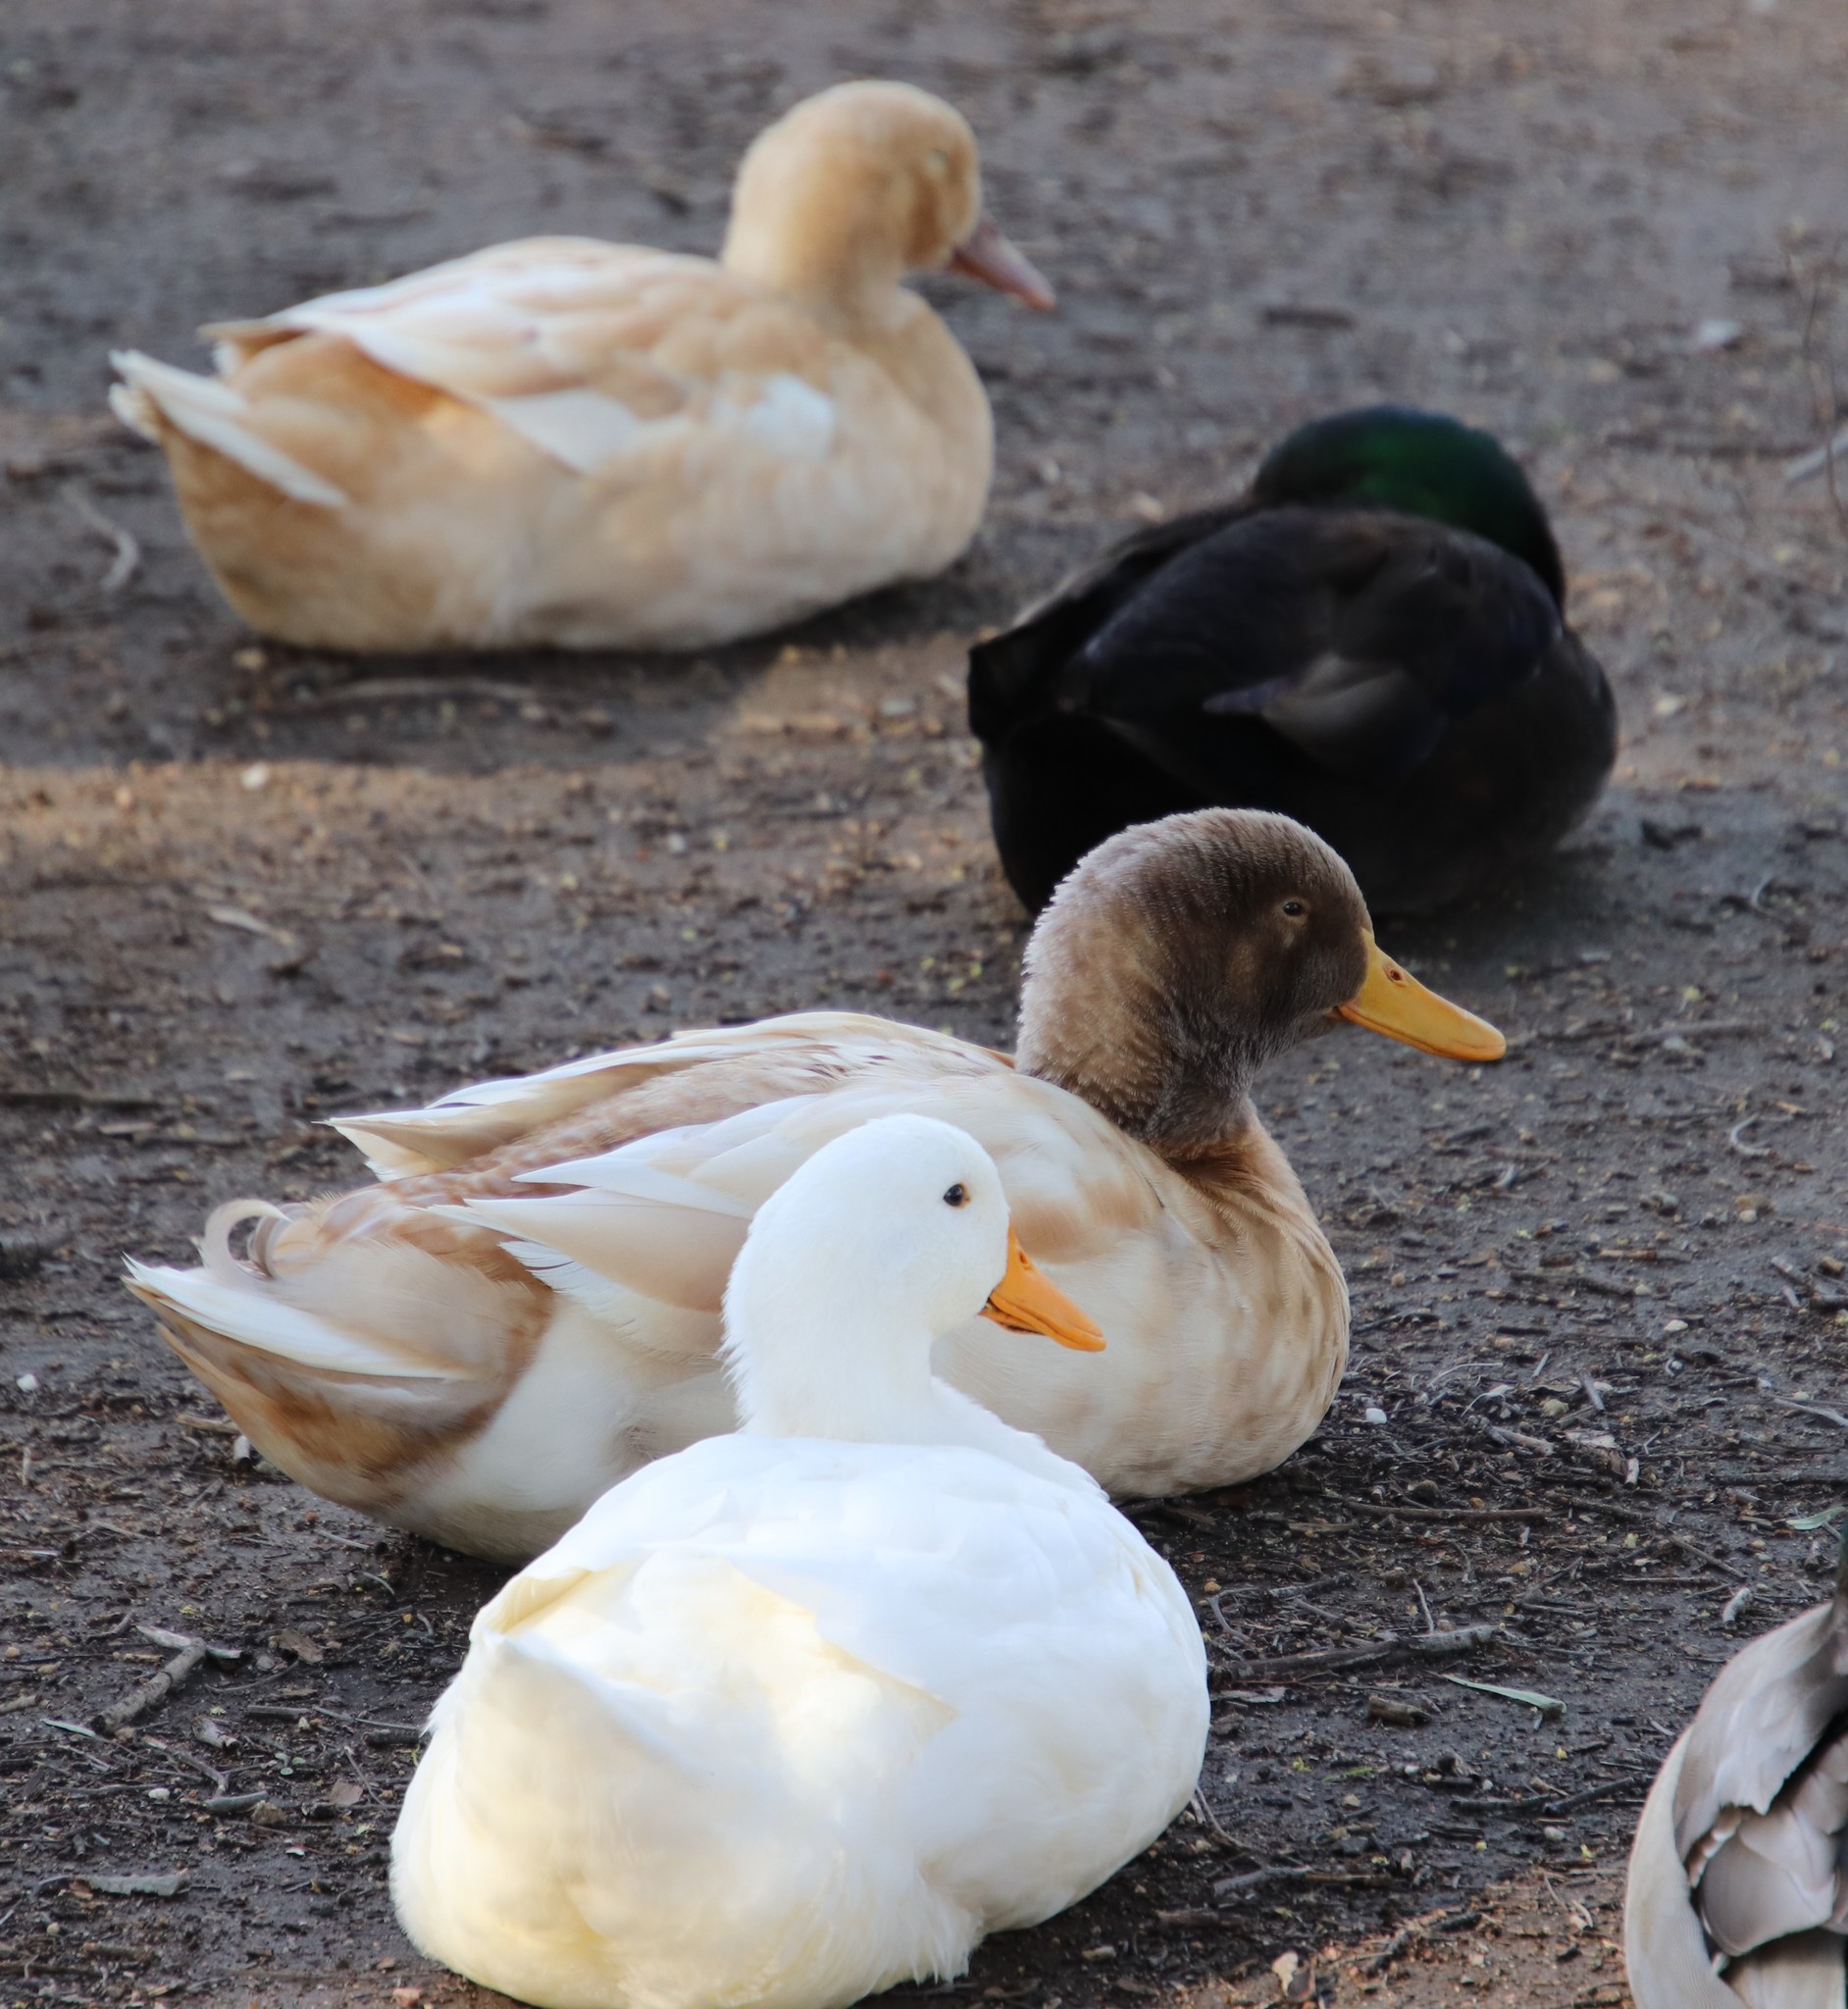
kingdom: Animalia
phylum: Chordata
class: Aves
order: Anseriformes
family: Anatidae
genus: Anas
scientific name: Anas platyrhynchos
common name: Mallard
